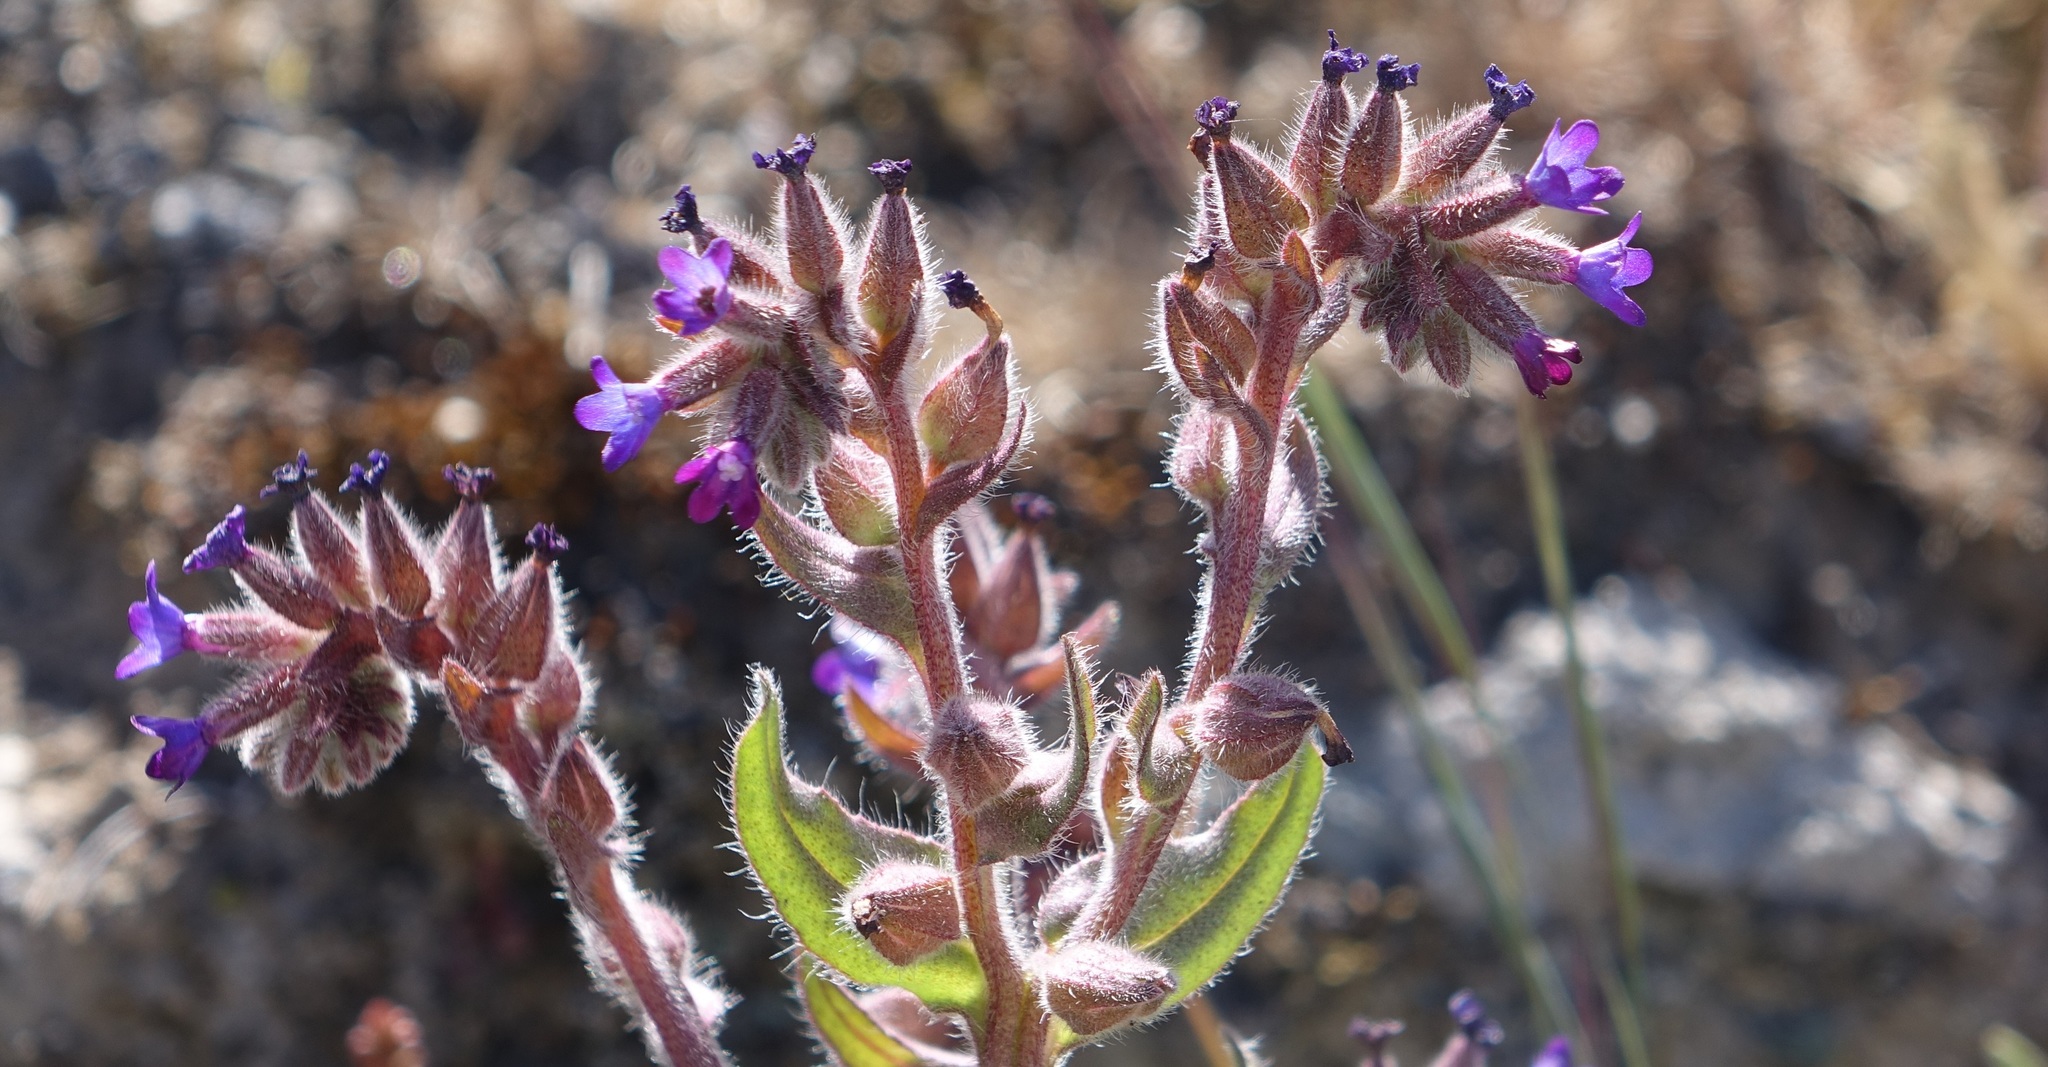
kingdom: Plantae
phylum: Tracheophyta
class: Magnoliopsida
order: Boraginales
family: Boraginaceae
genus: Anchusa
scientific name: Anchusa undulata
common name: Undulate alkanet
